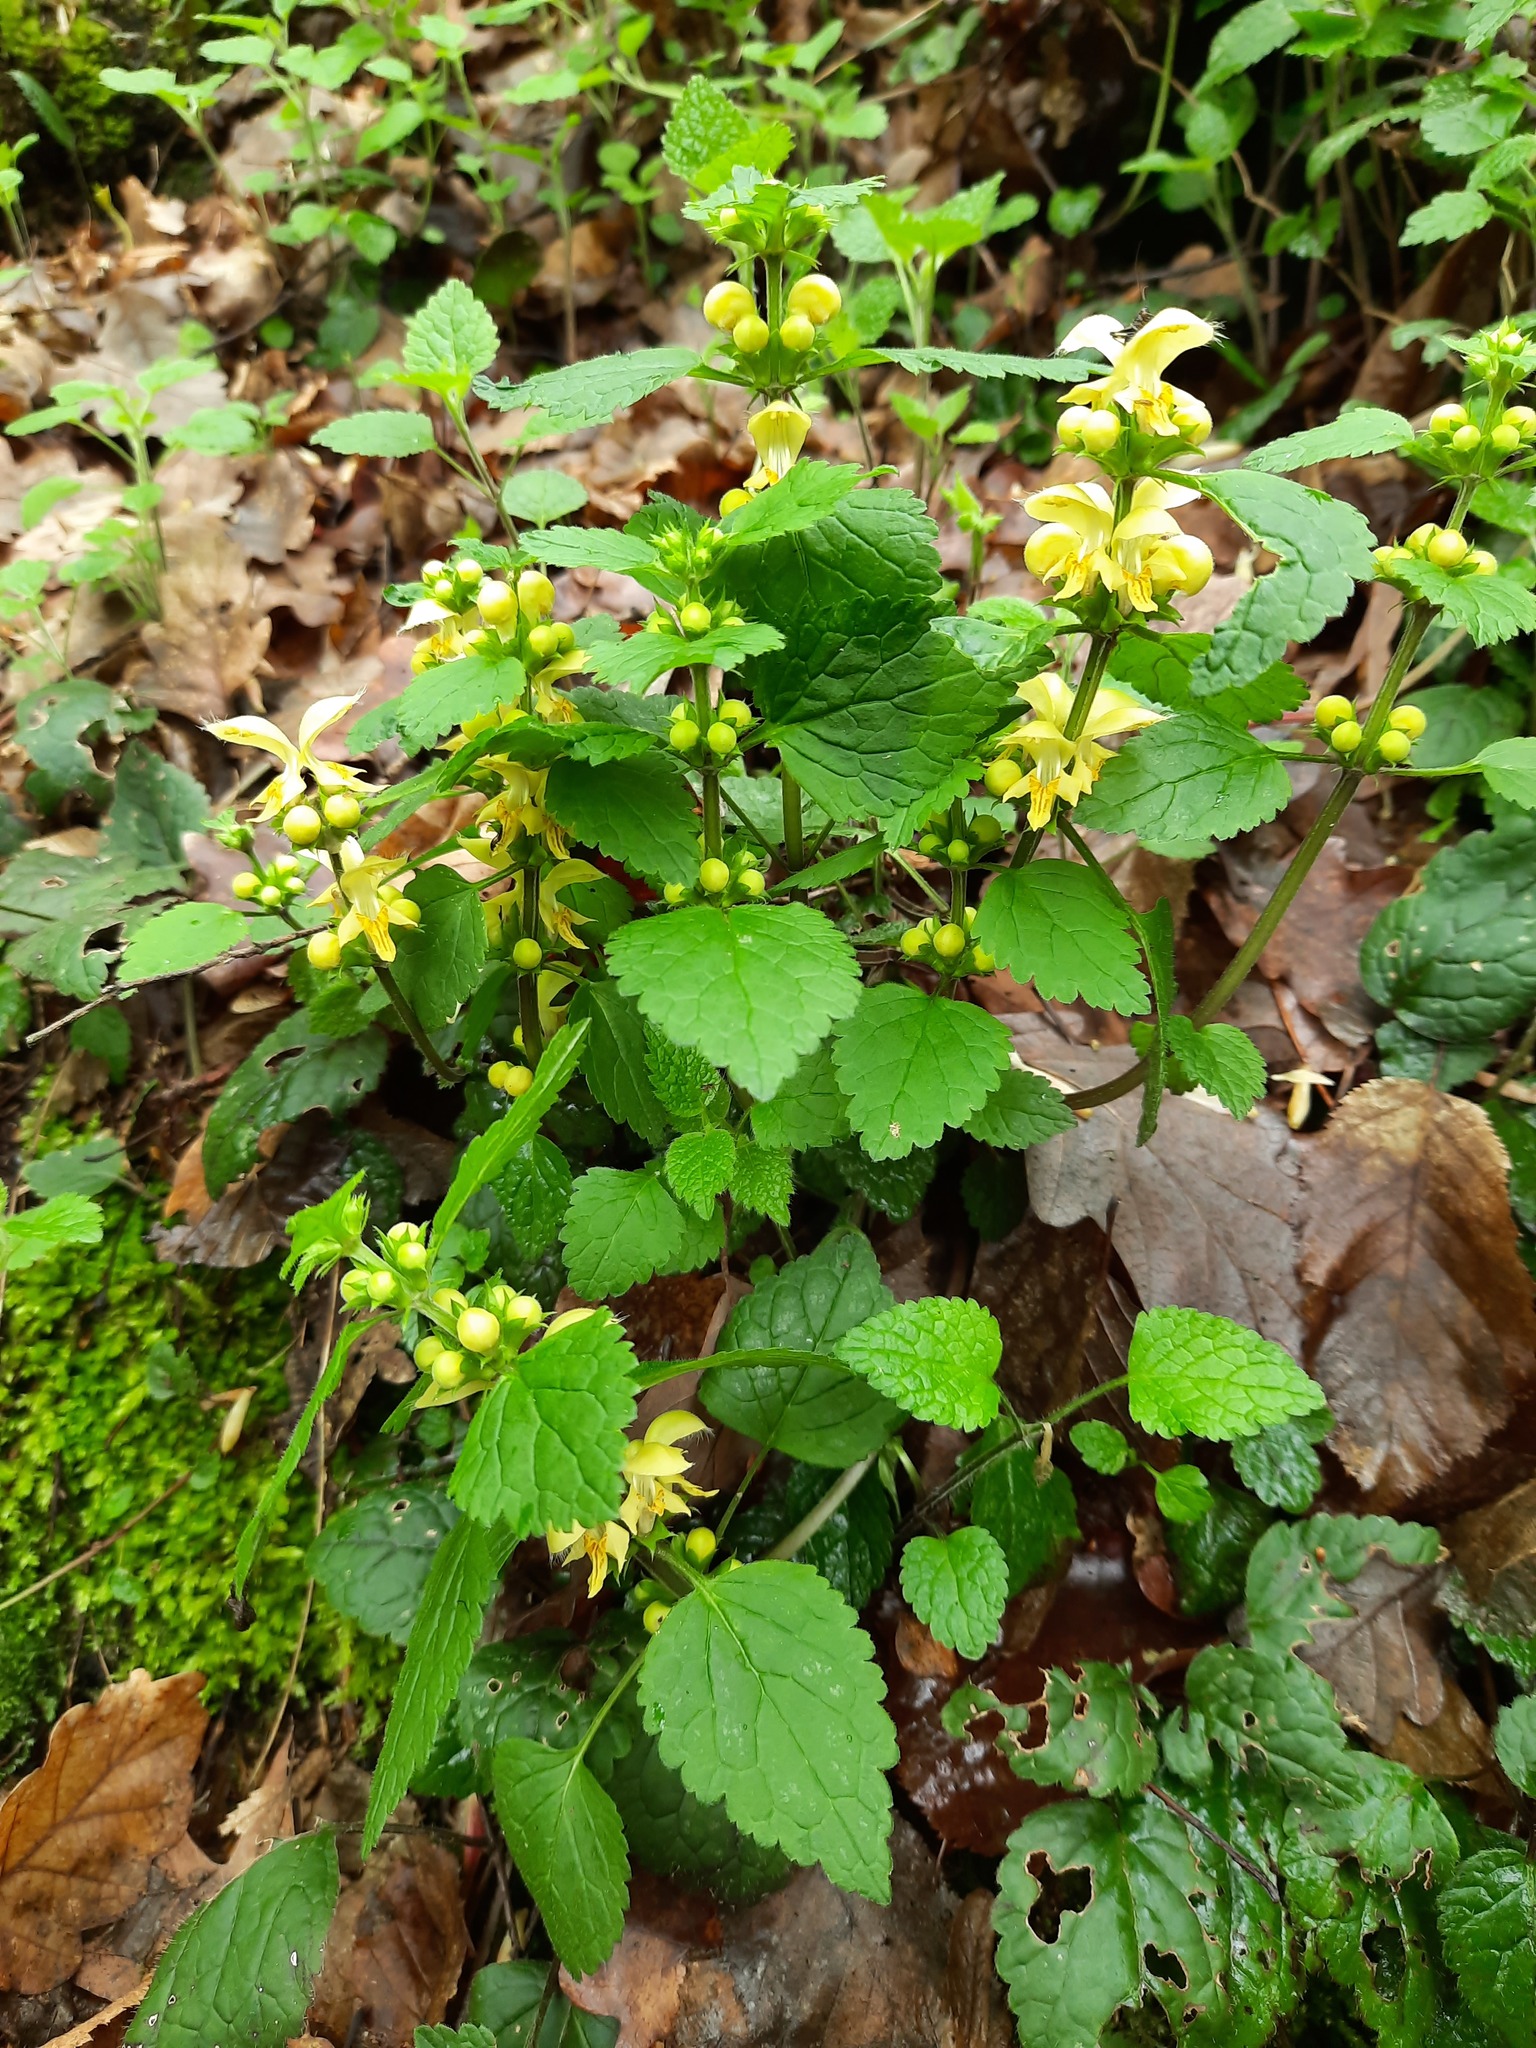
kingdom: Plantae
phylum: Tracheophyta
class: Magnoliopsida
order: Lamiales
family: Lamiaceae
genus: Lamium
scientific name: Lamium galeobdolon
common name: Yellow archangel
